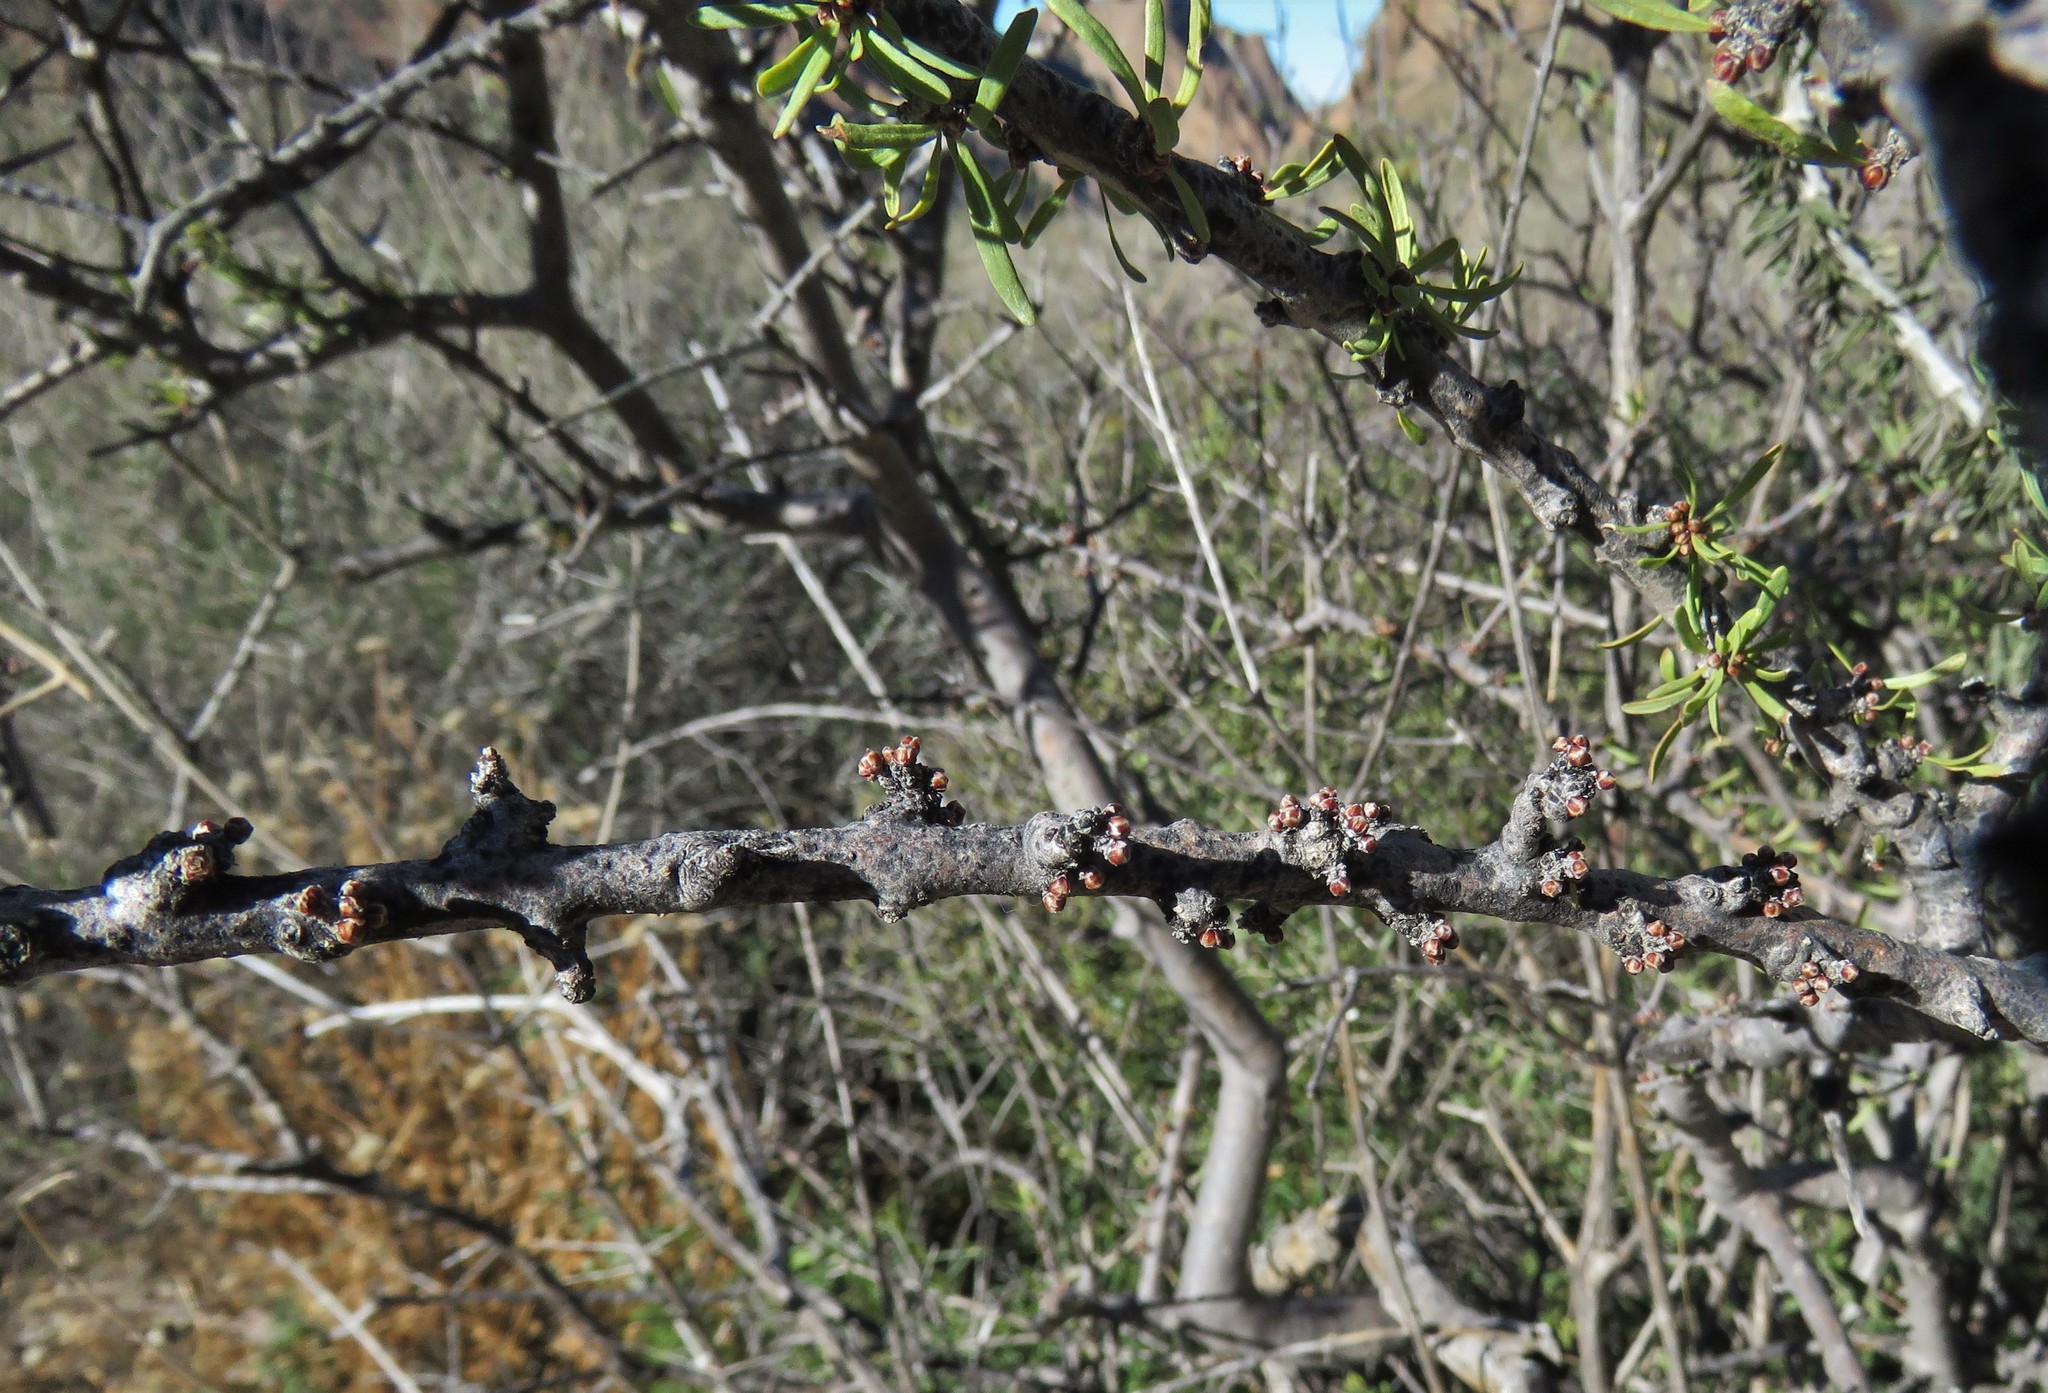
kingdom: Plantae
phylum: Tracheophyta
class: Magnoliopsida
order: Zygophyllales
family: Zygophyllaceae
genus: Porlieria
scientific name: Porlieria angustifolia
